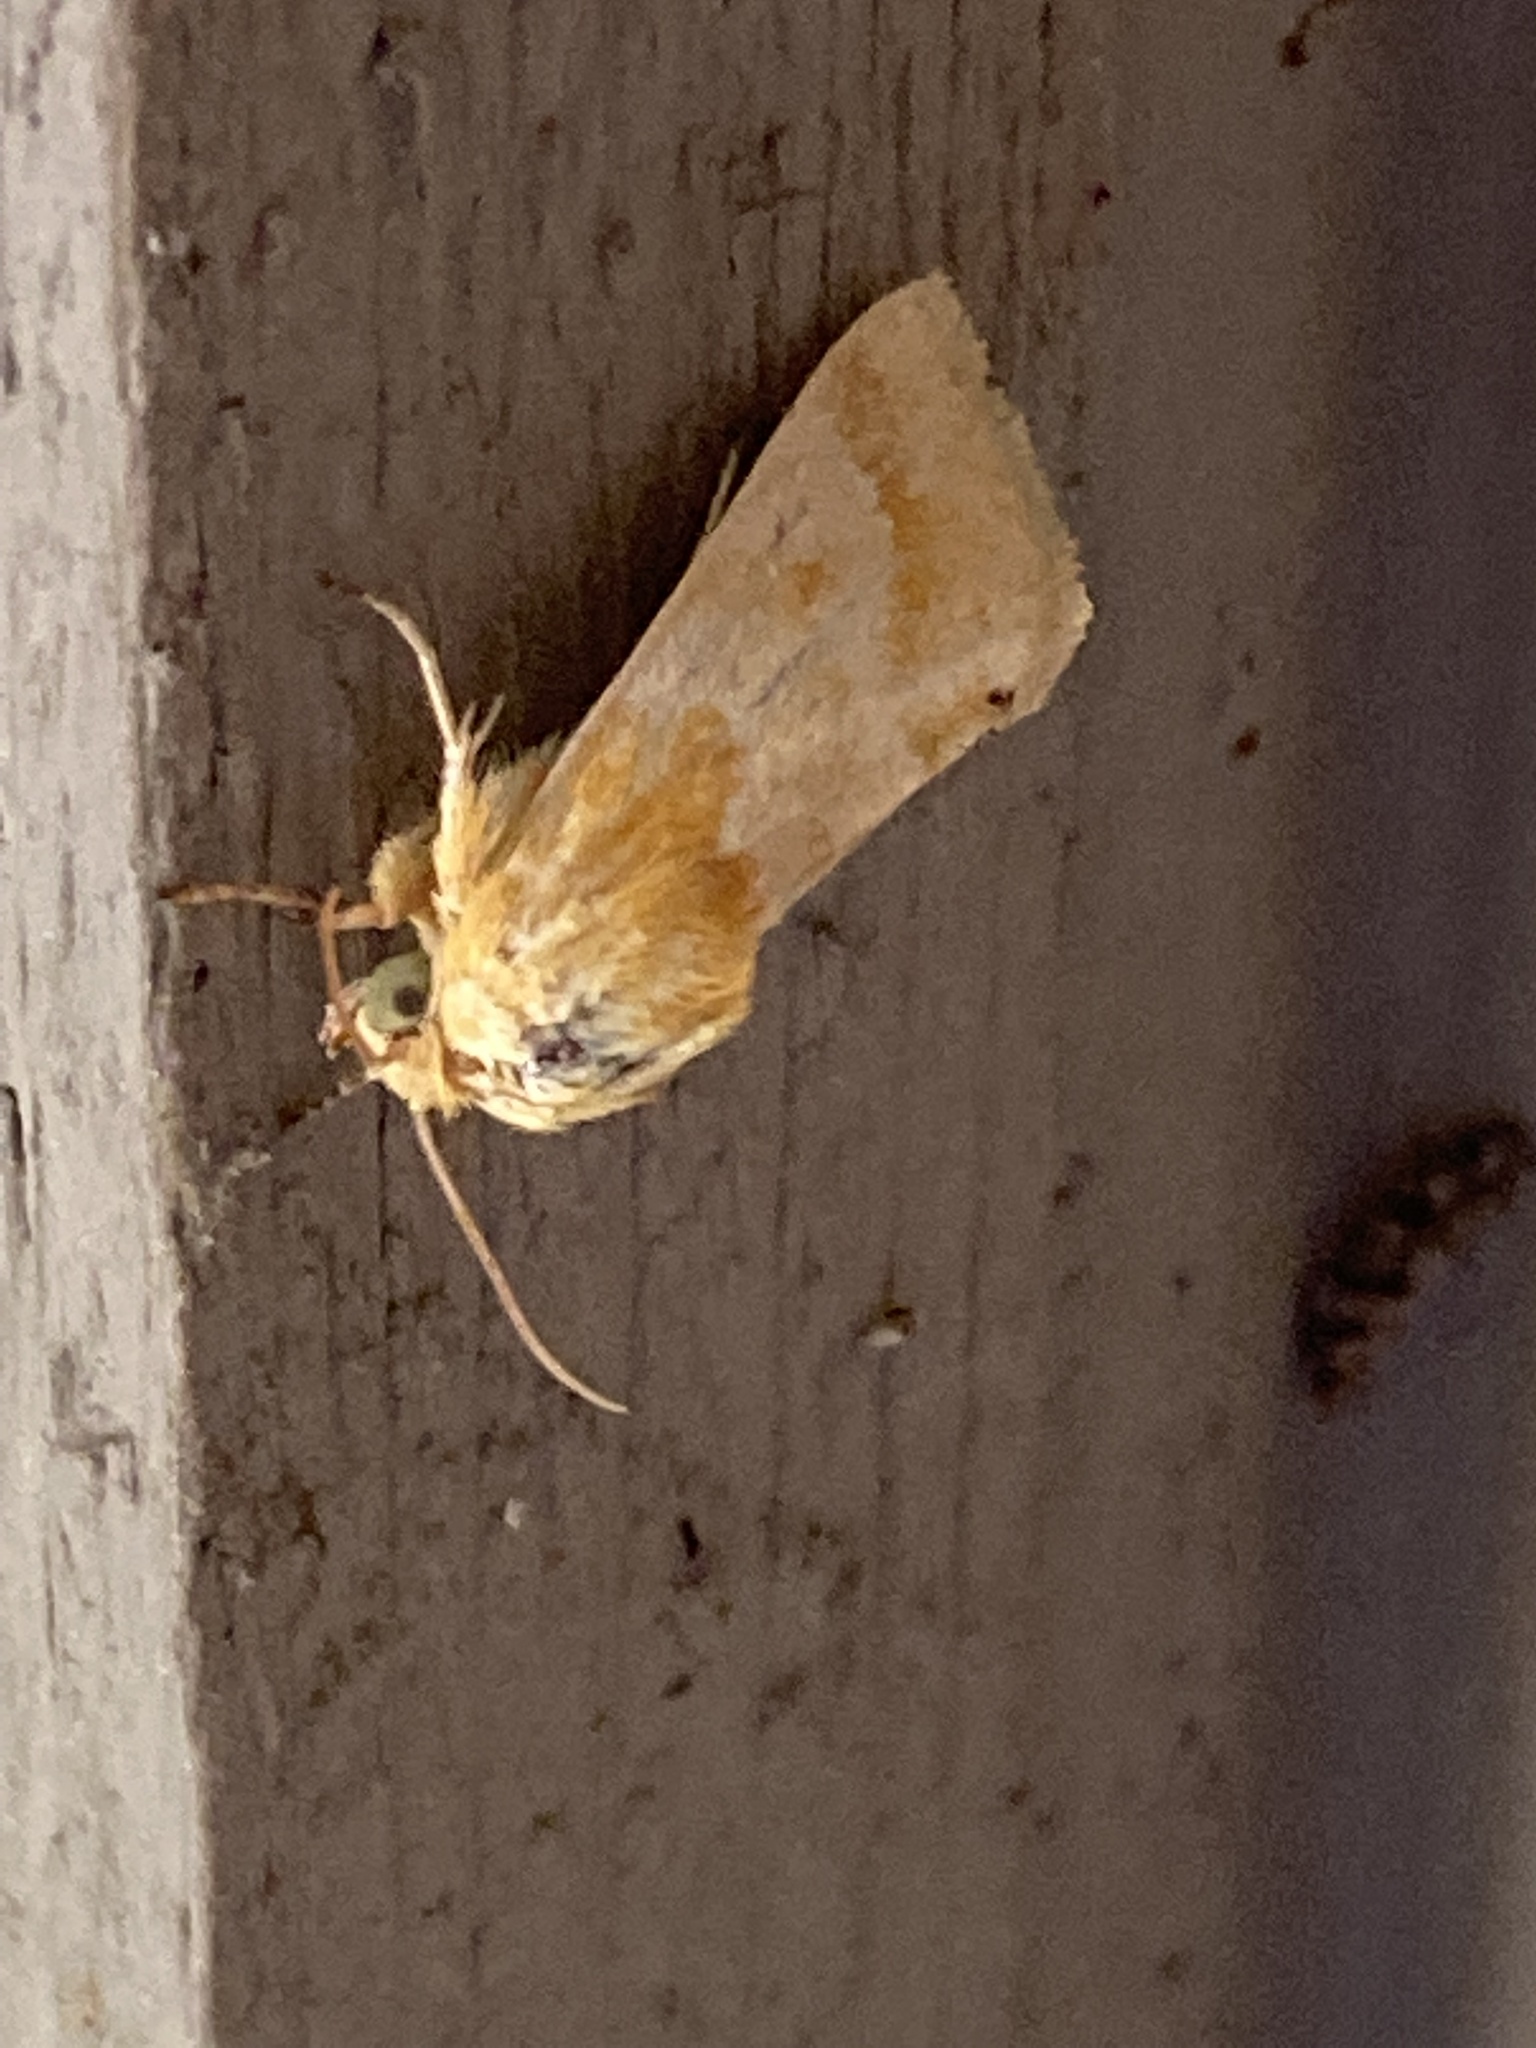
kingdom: Animalia
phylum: Arthropoda
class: Insecta
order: Lepidoptera
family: Noctuidae
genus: Schinia
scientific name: Schinia siren
